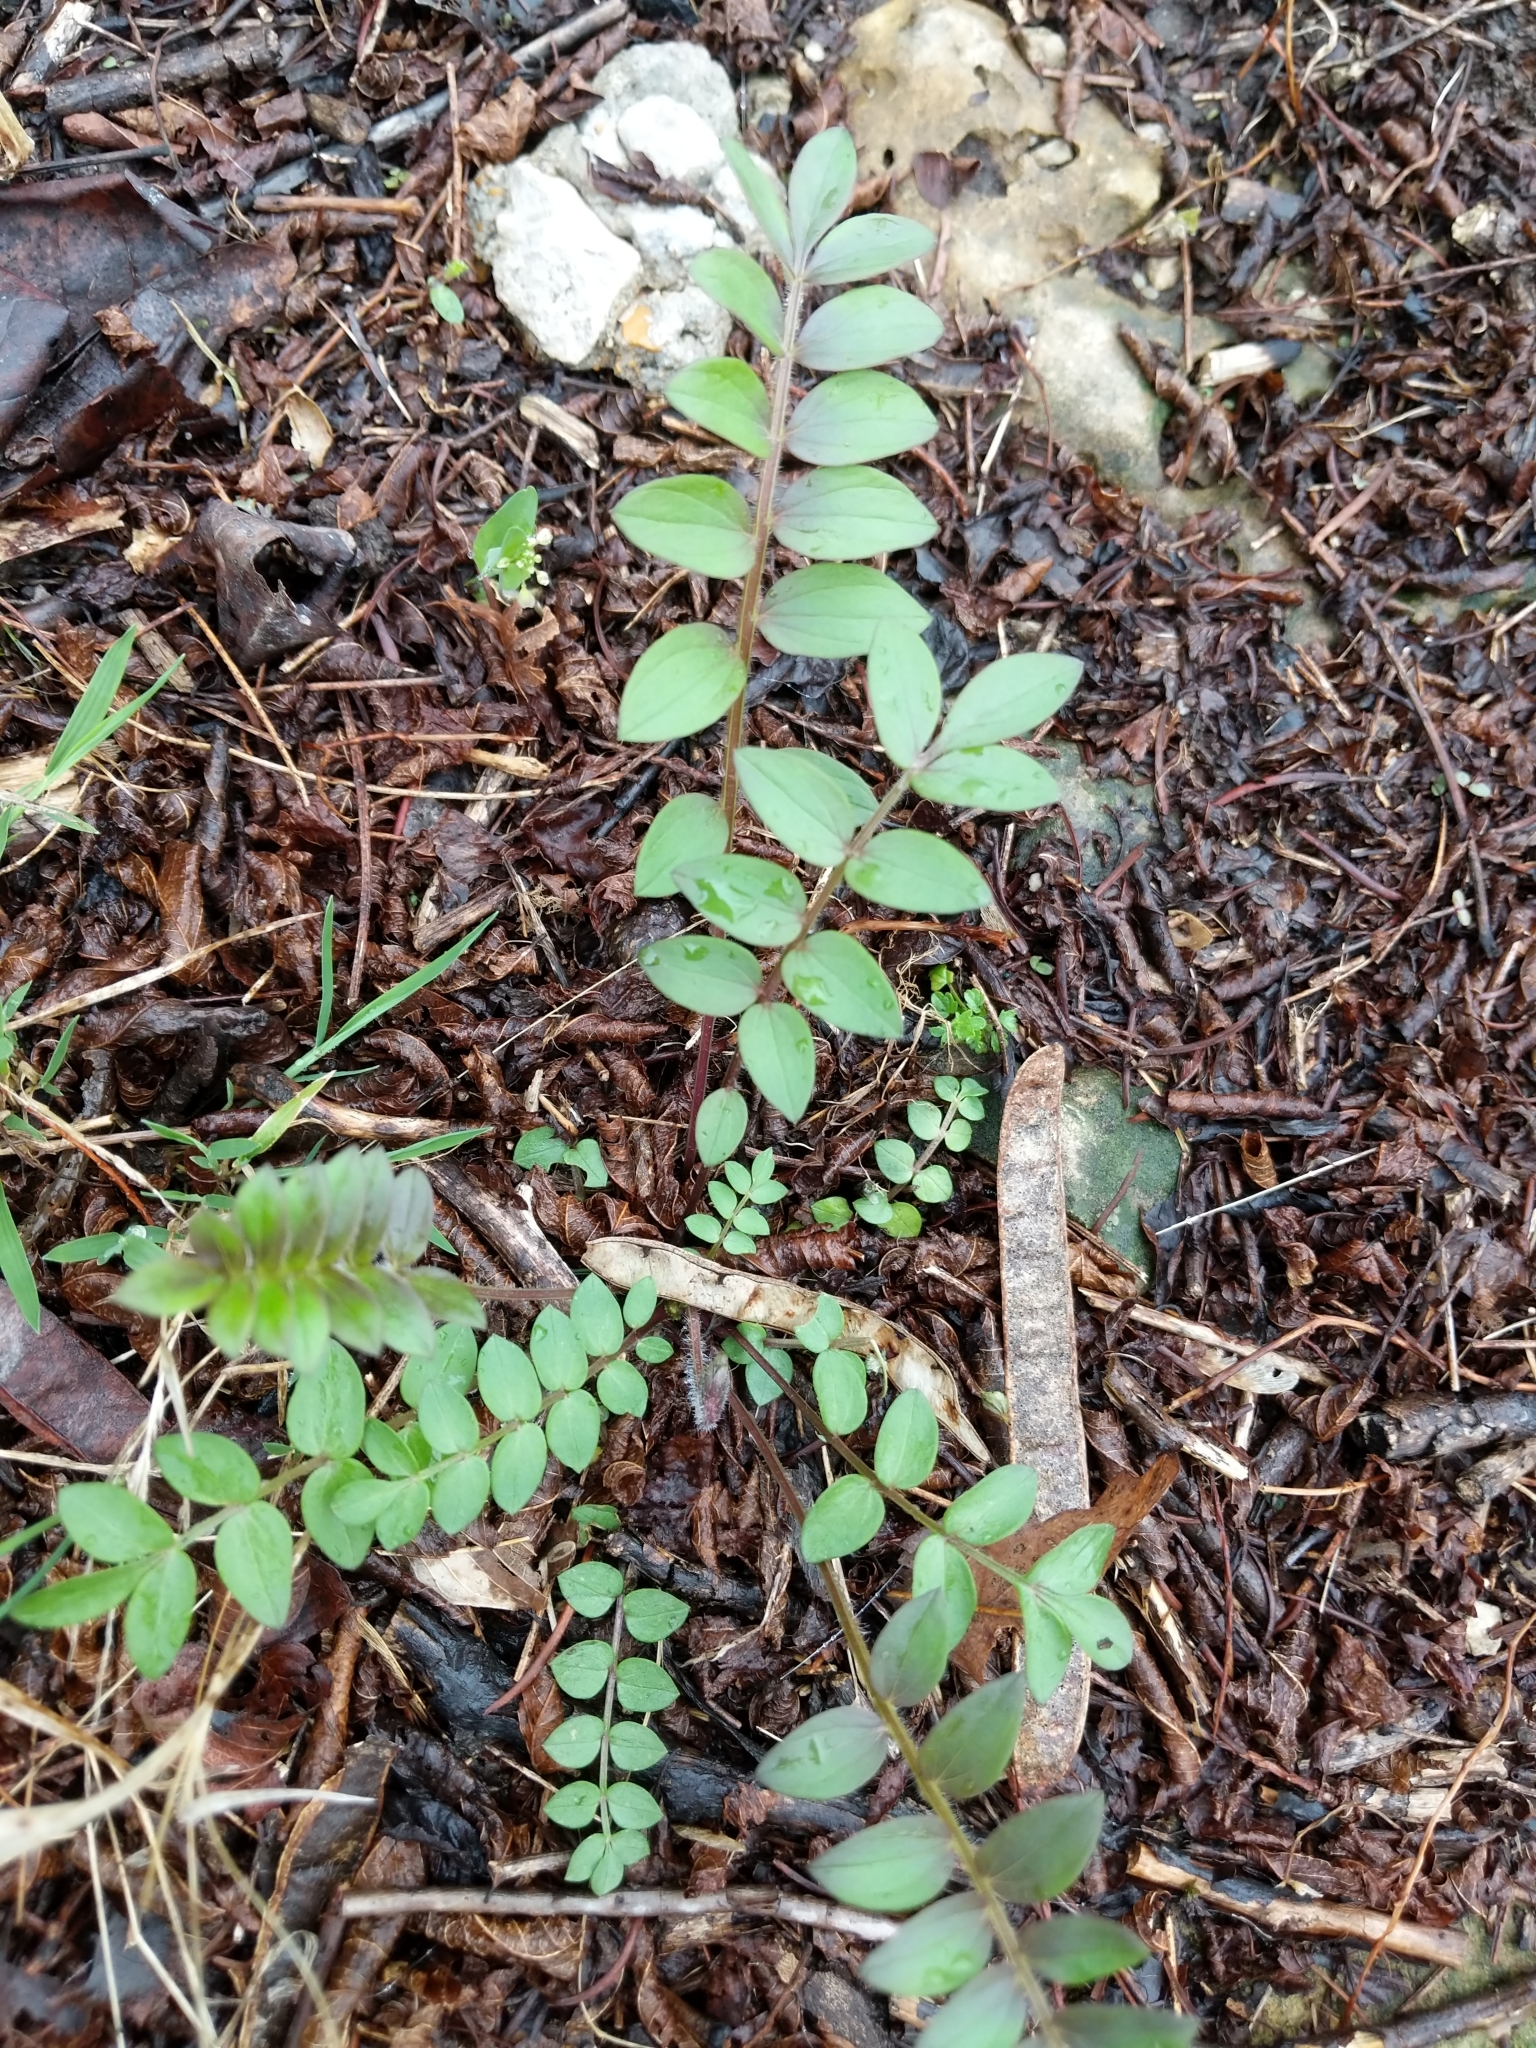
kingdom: Plantae
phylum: Tracheophyta
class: Magnoliopsida
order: Ericales
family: Polemoniaceae
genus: Polemonium
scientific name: Polemonium reptans
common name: Creeping jacob's-ladder
